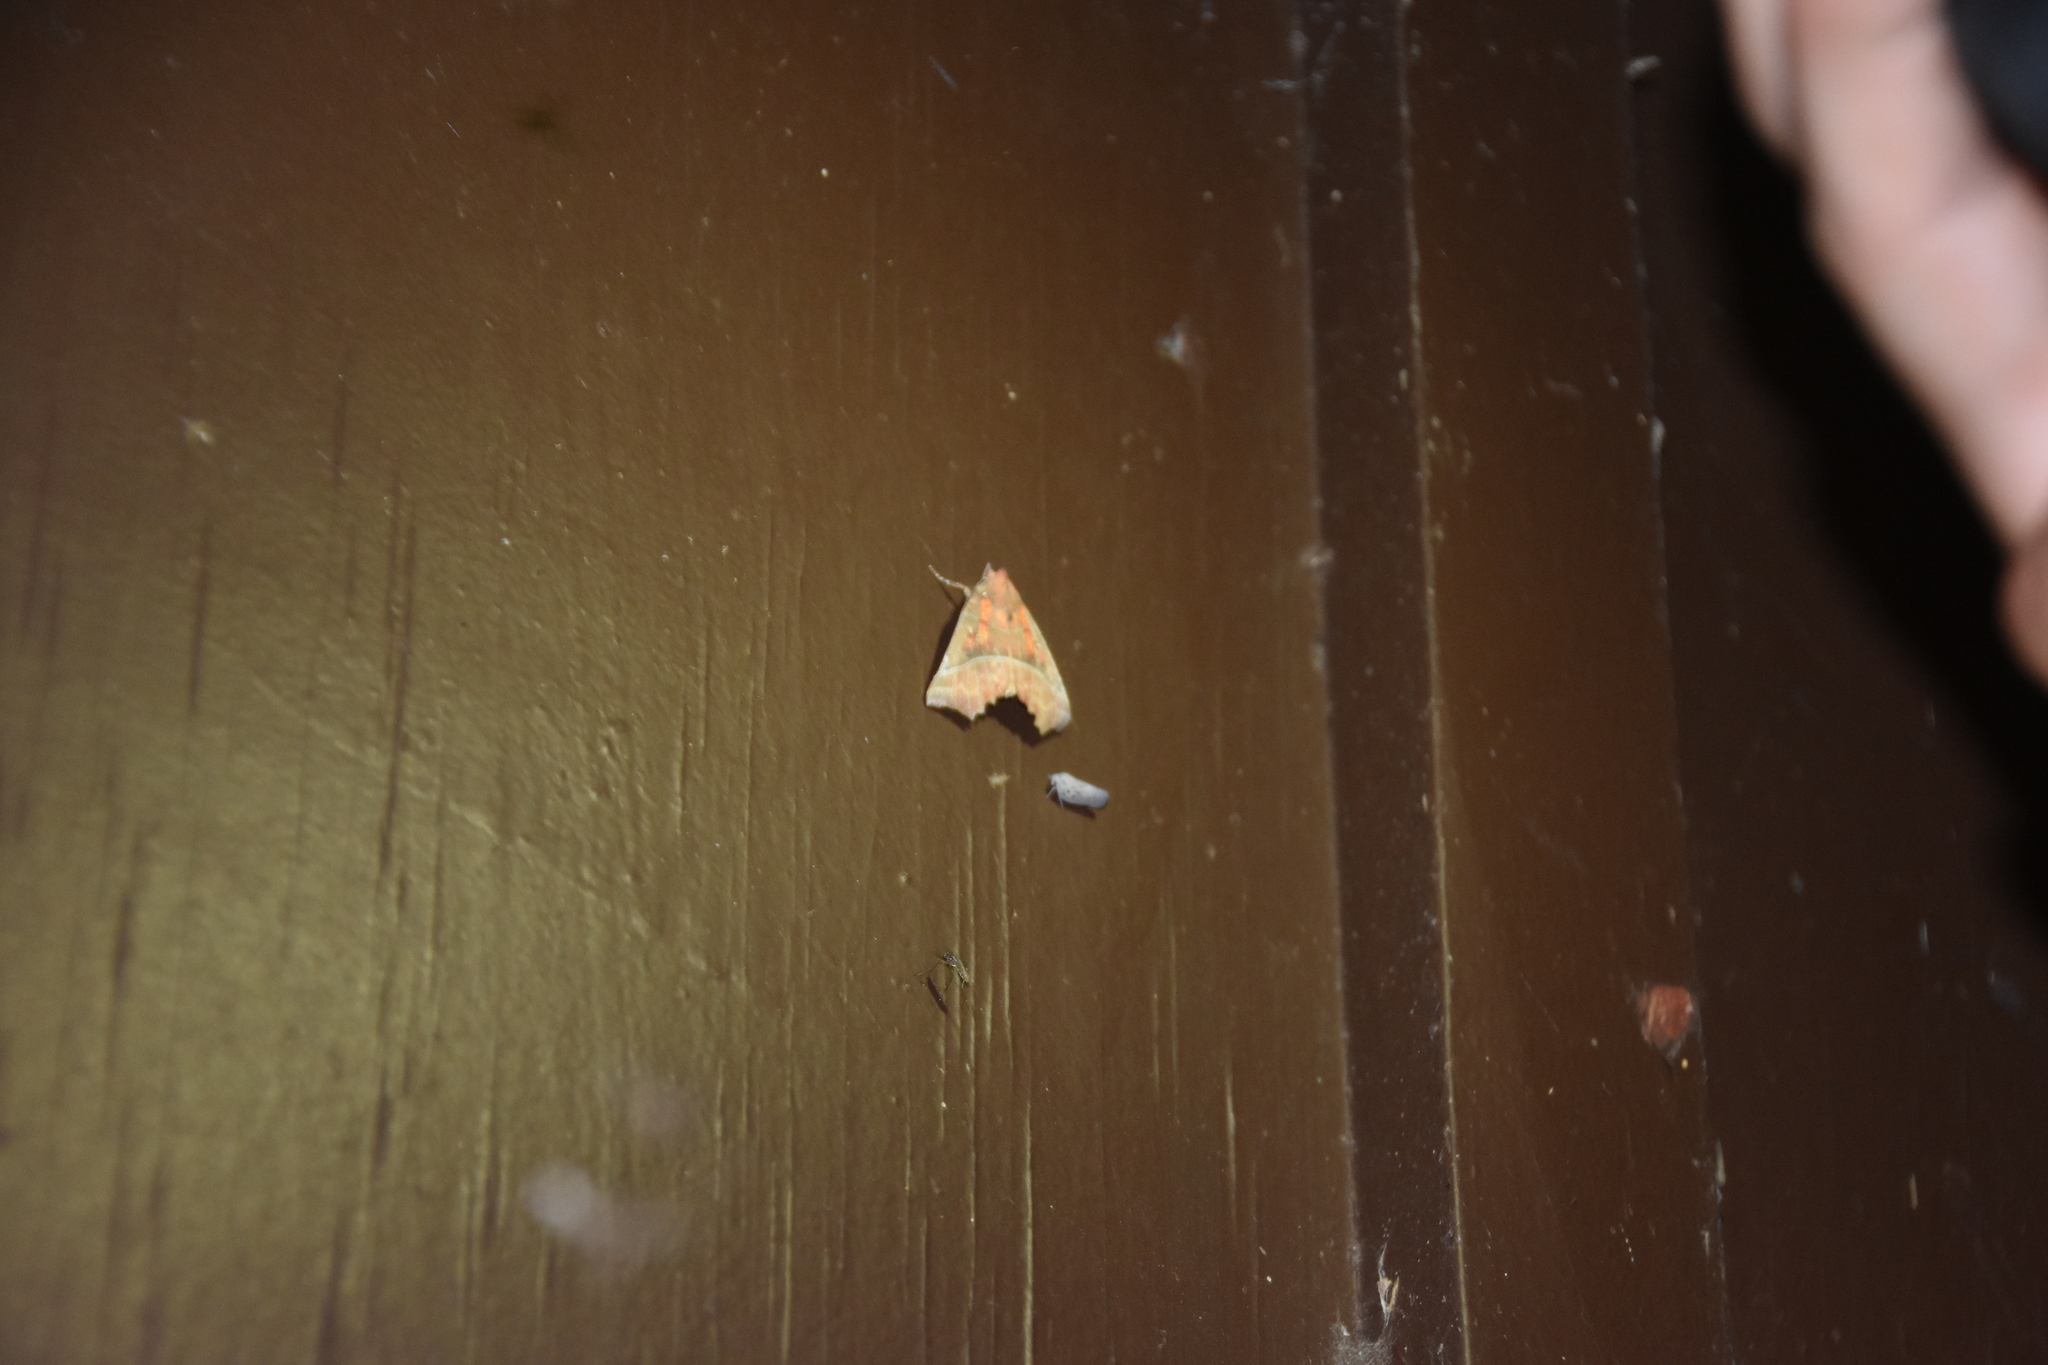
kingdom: Animalia
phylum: Arthropoda
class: Insecta
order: Lepidoptera
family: Erebidae
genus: Scoliopteryx
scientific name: Scoliopteryx libatrix
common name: Herald
